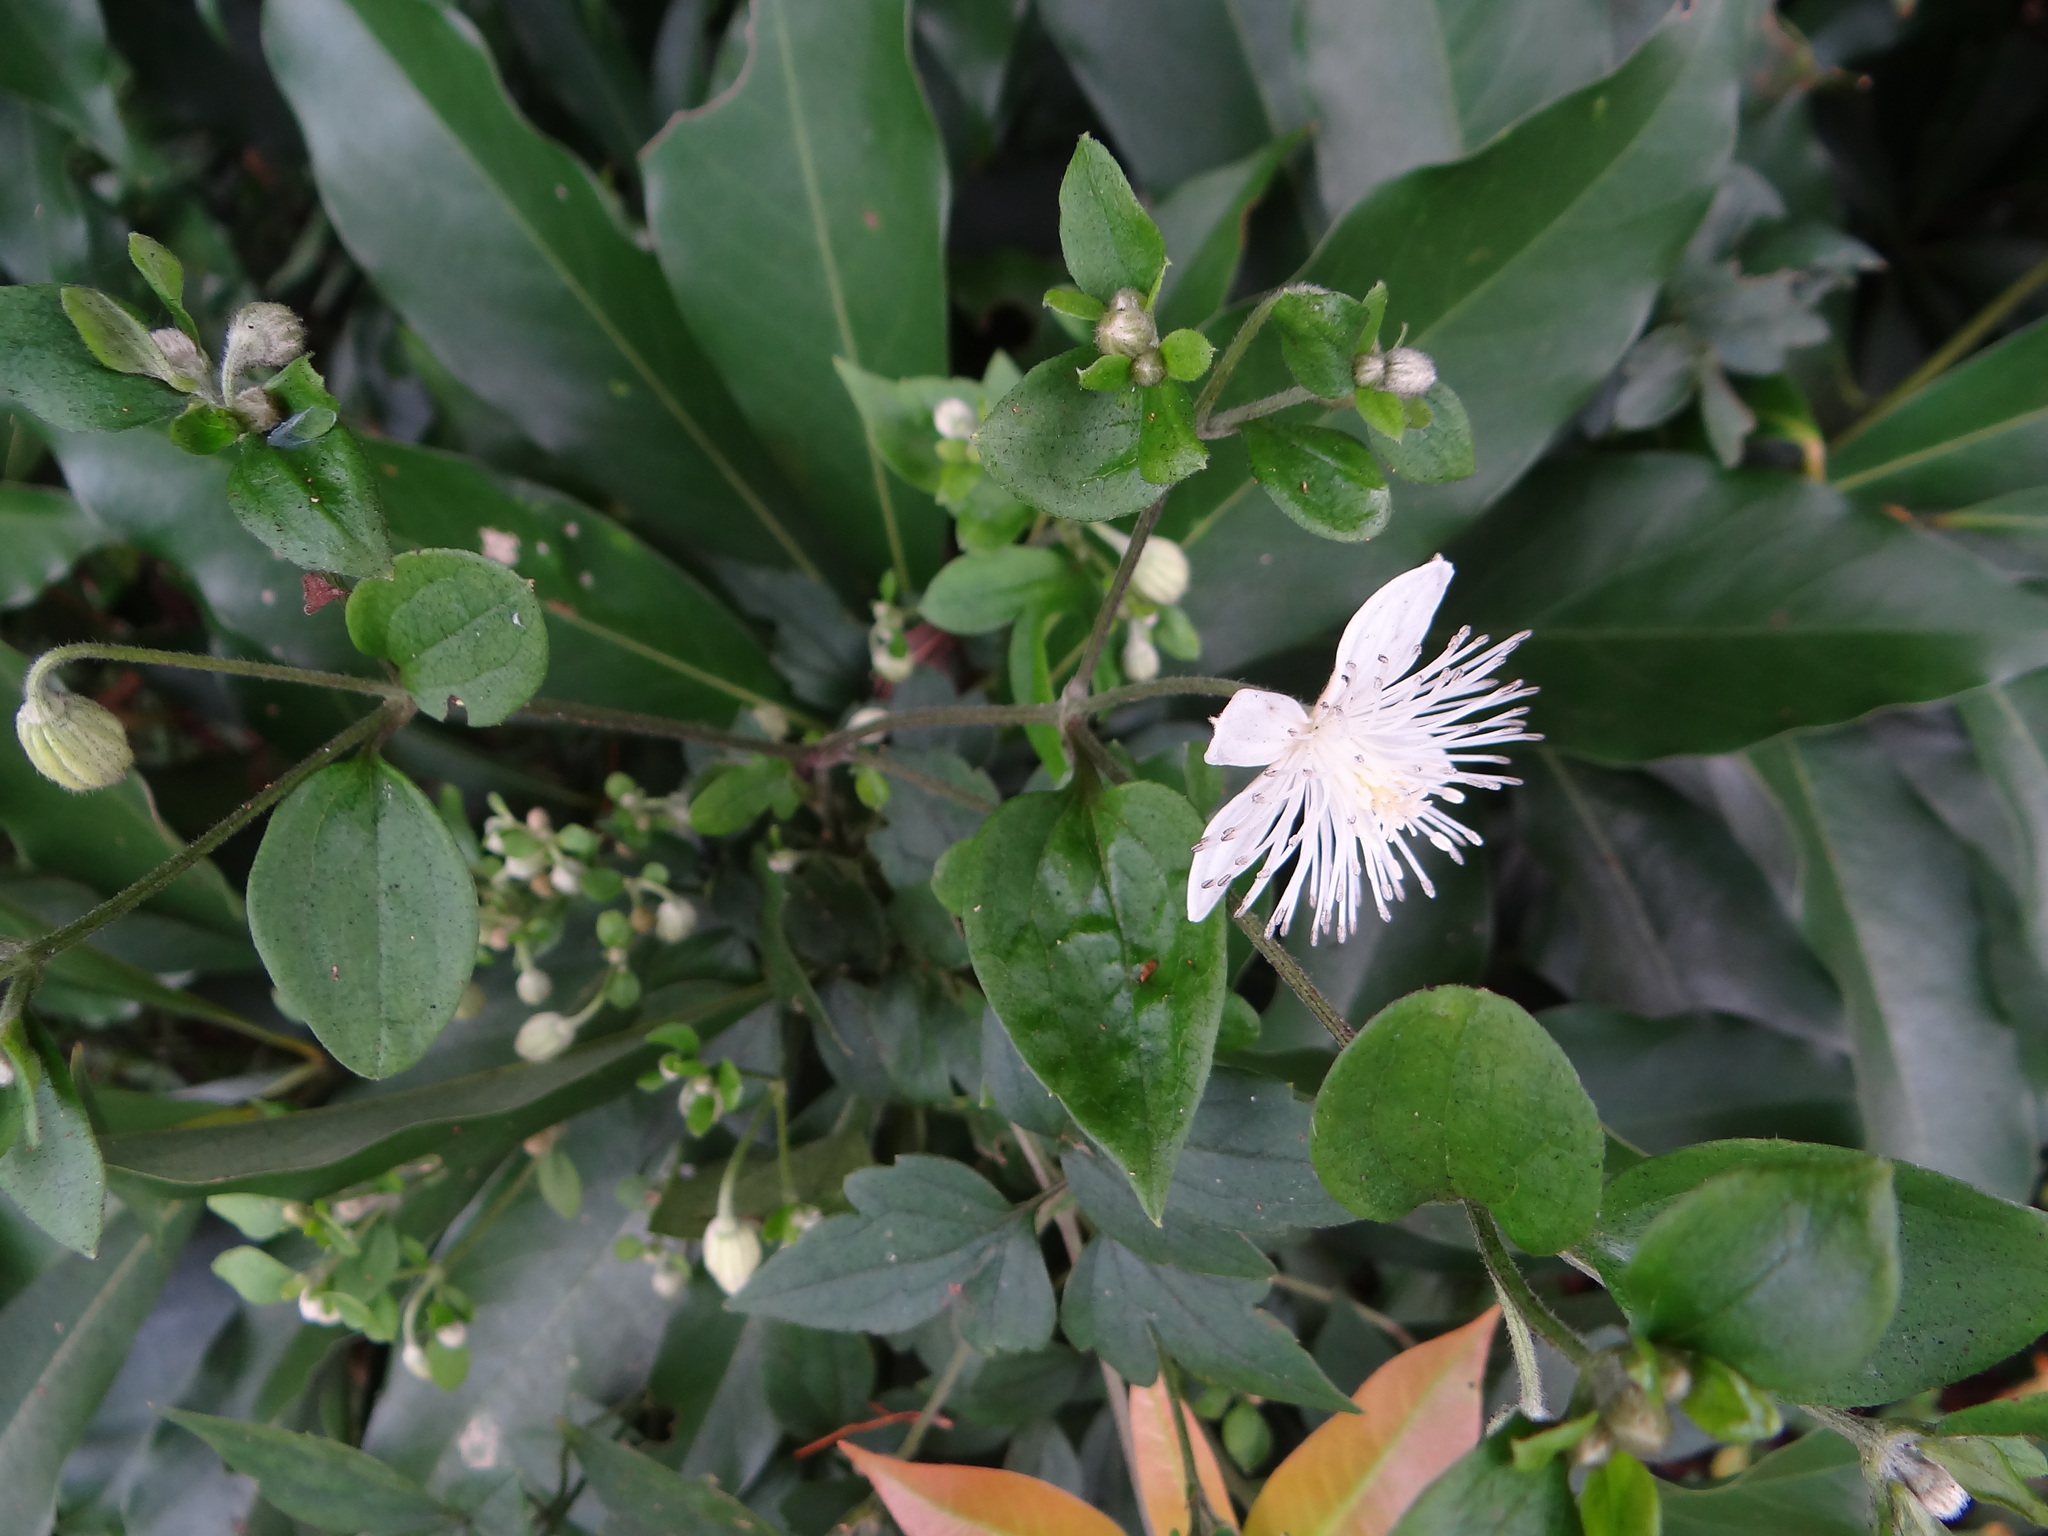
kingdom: Plantae
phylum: Tracheophyta
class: Magnoliopsida
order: Ranunculales
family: Ranunculaceae
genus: Clematis
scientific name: Clematis parviloba
